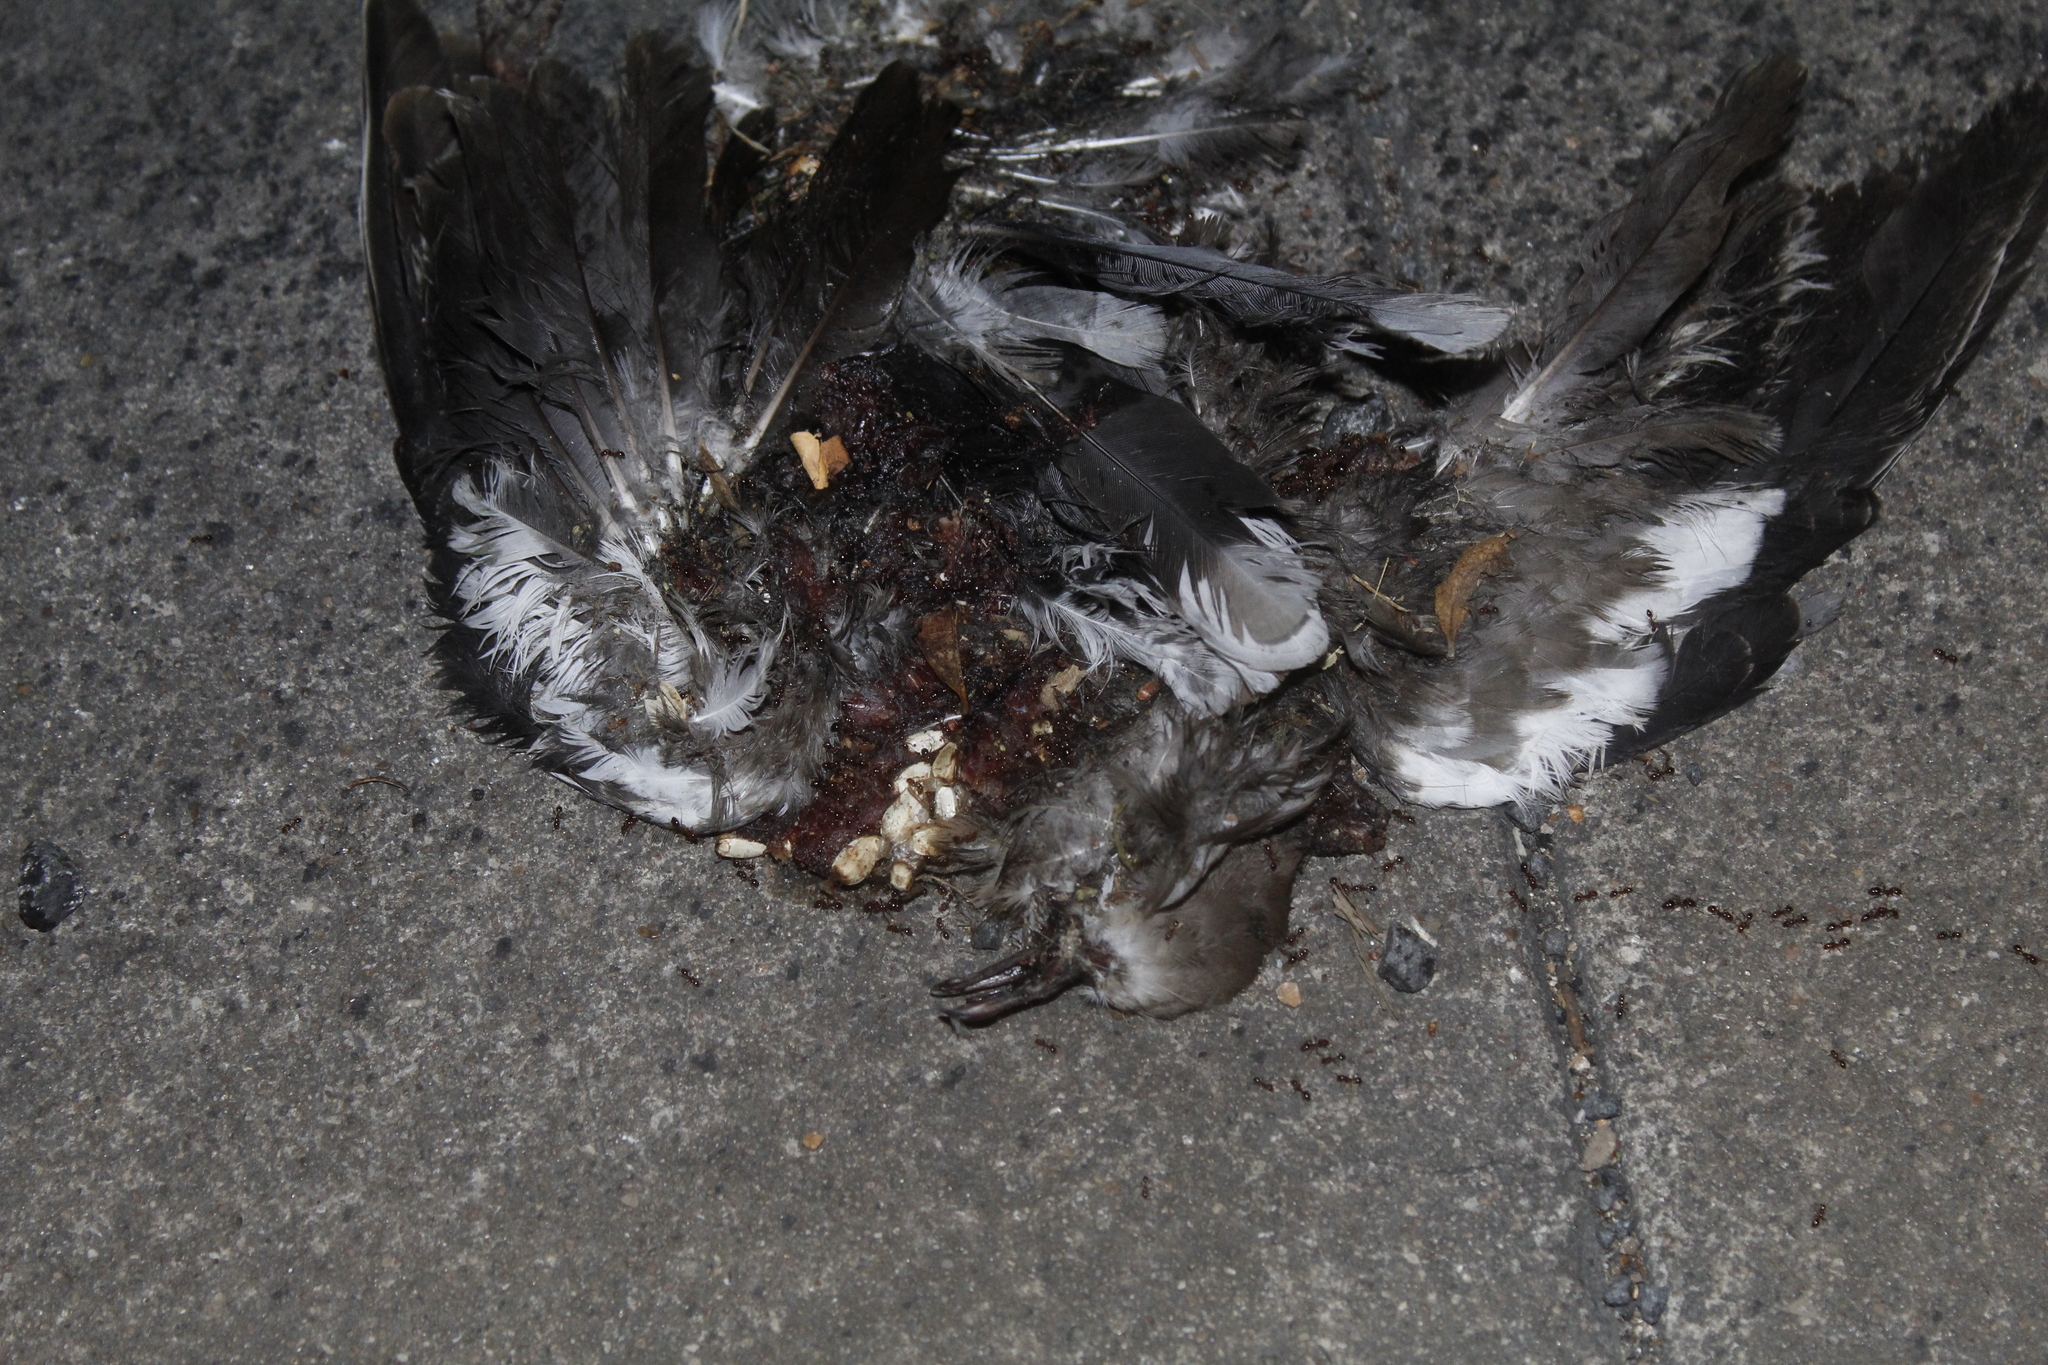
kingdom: Animalia
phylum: Chordata
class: Aves
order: Columbiformes
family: Columbidae
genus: Zenaida
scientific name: Zenaida asiatica
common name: White-winged dove
